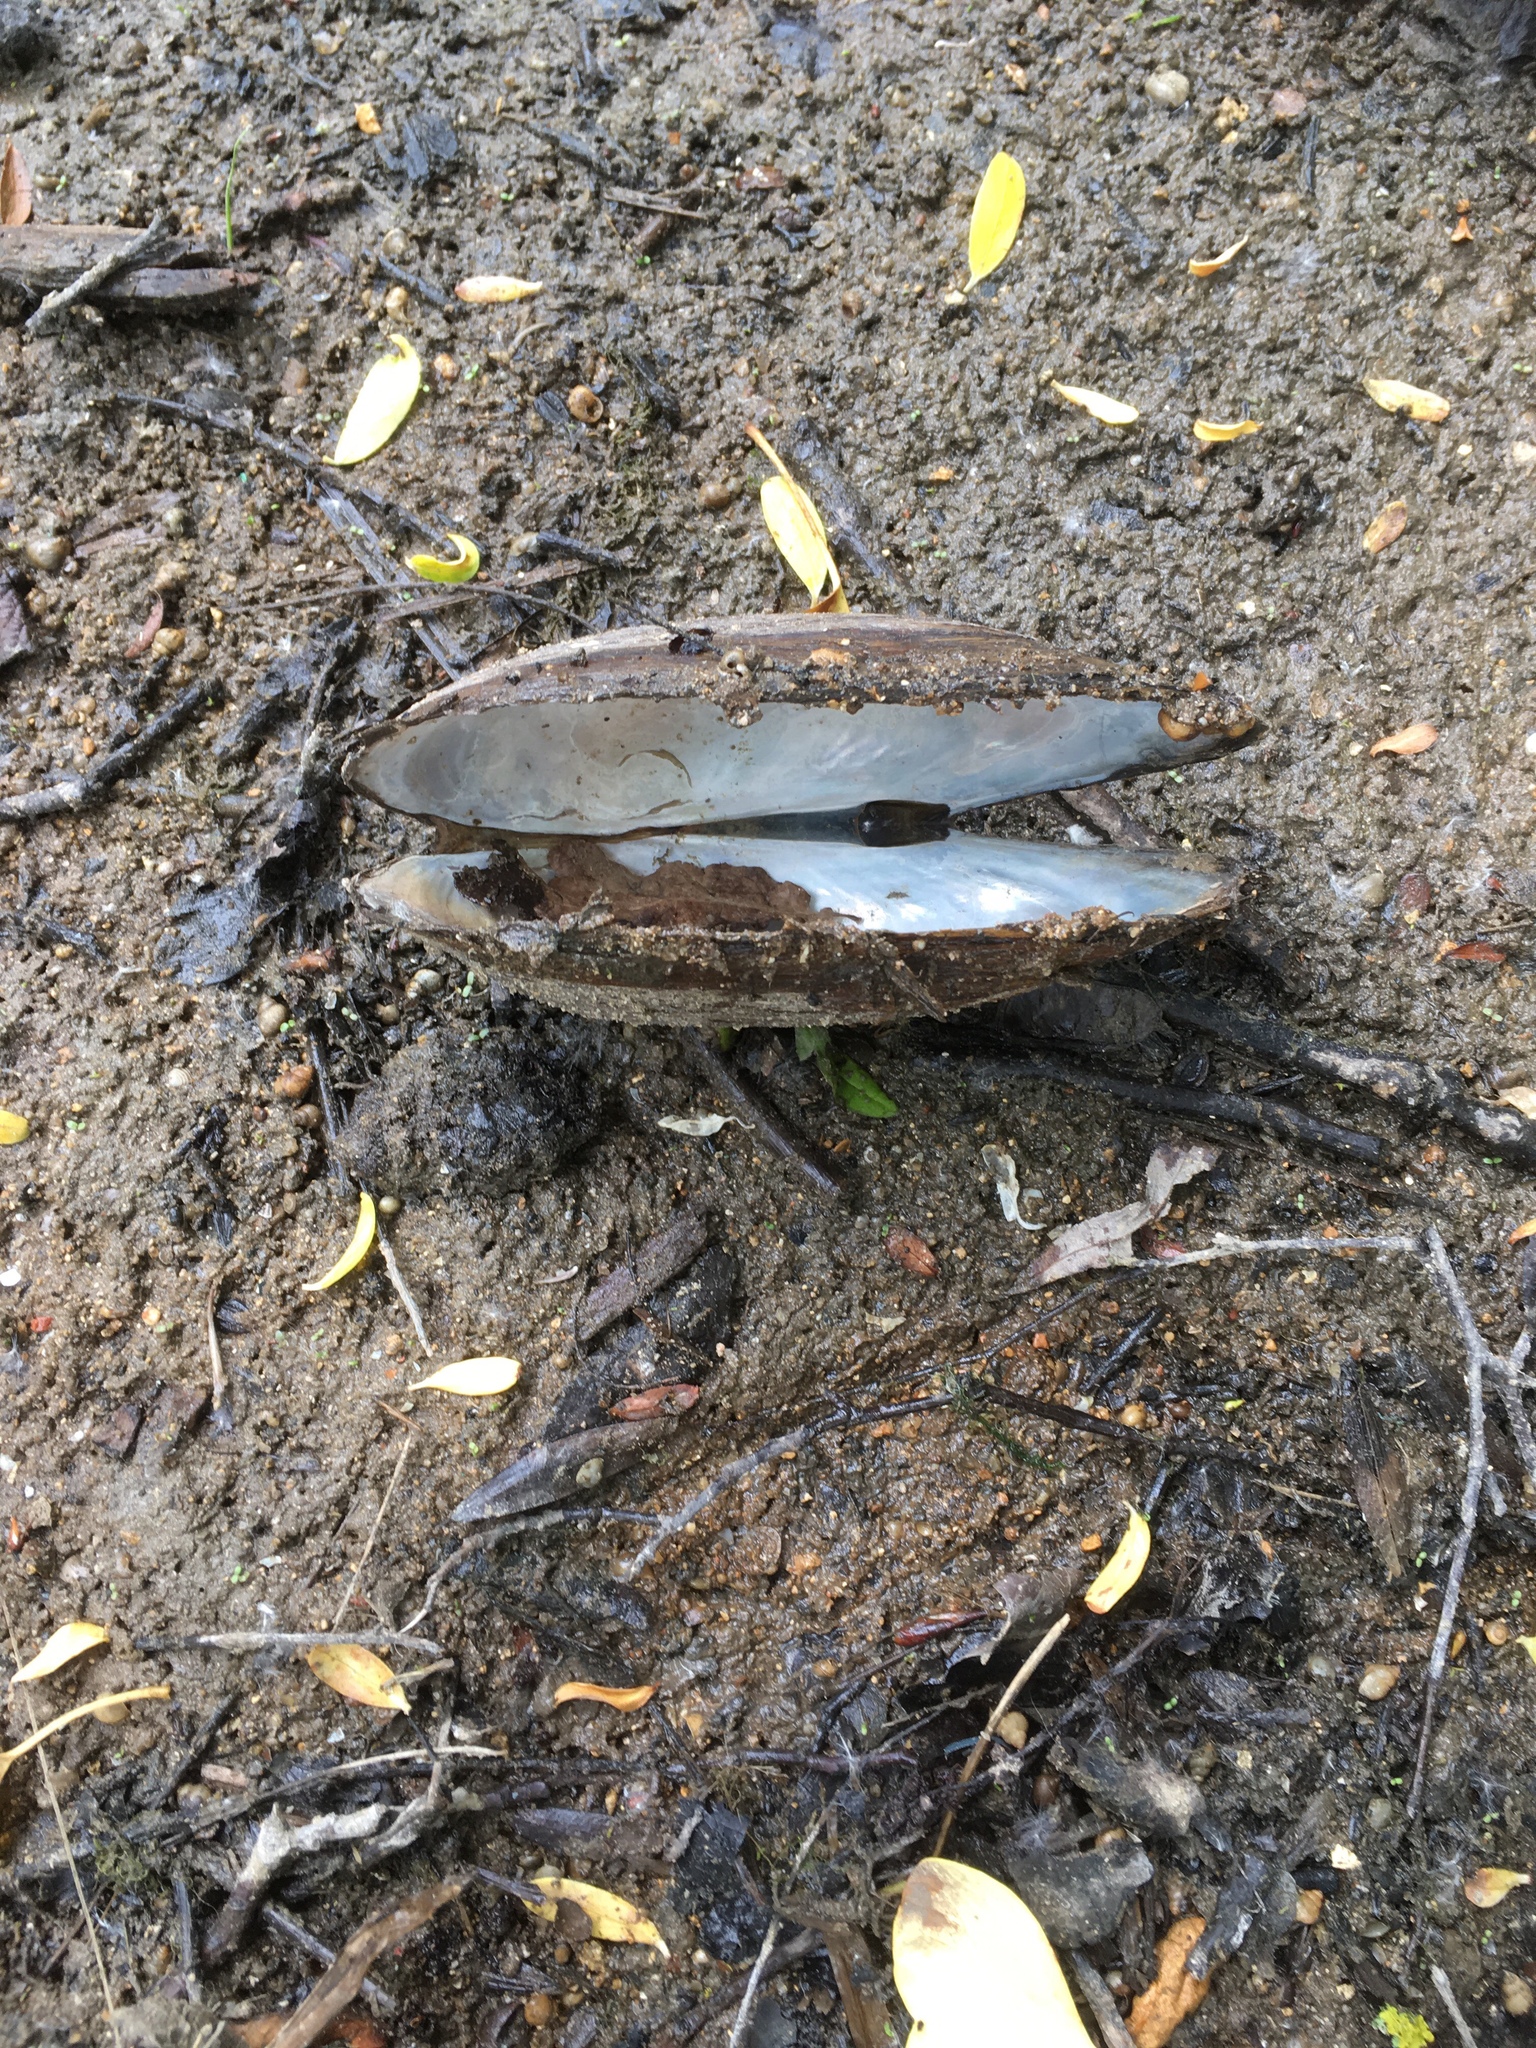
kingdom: Animalia
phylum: Mollusca
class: Bivalvia
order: Unionida
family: Unionidae
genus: Anodonta
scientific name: Anodonta anatina
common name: Duck mussel
